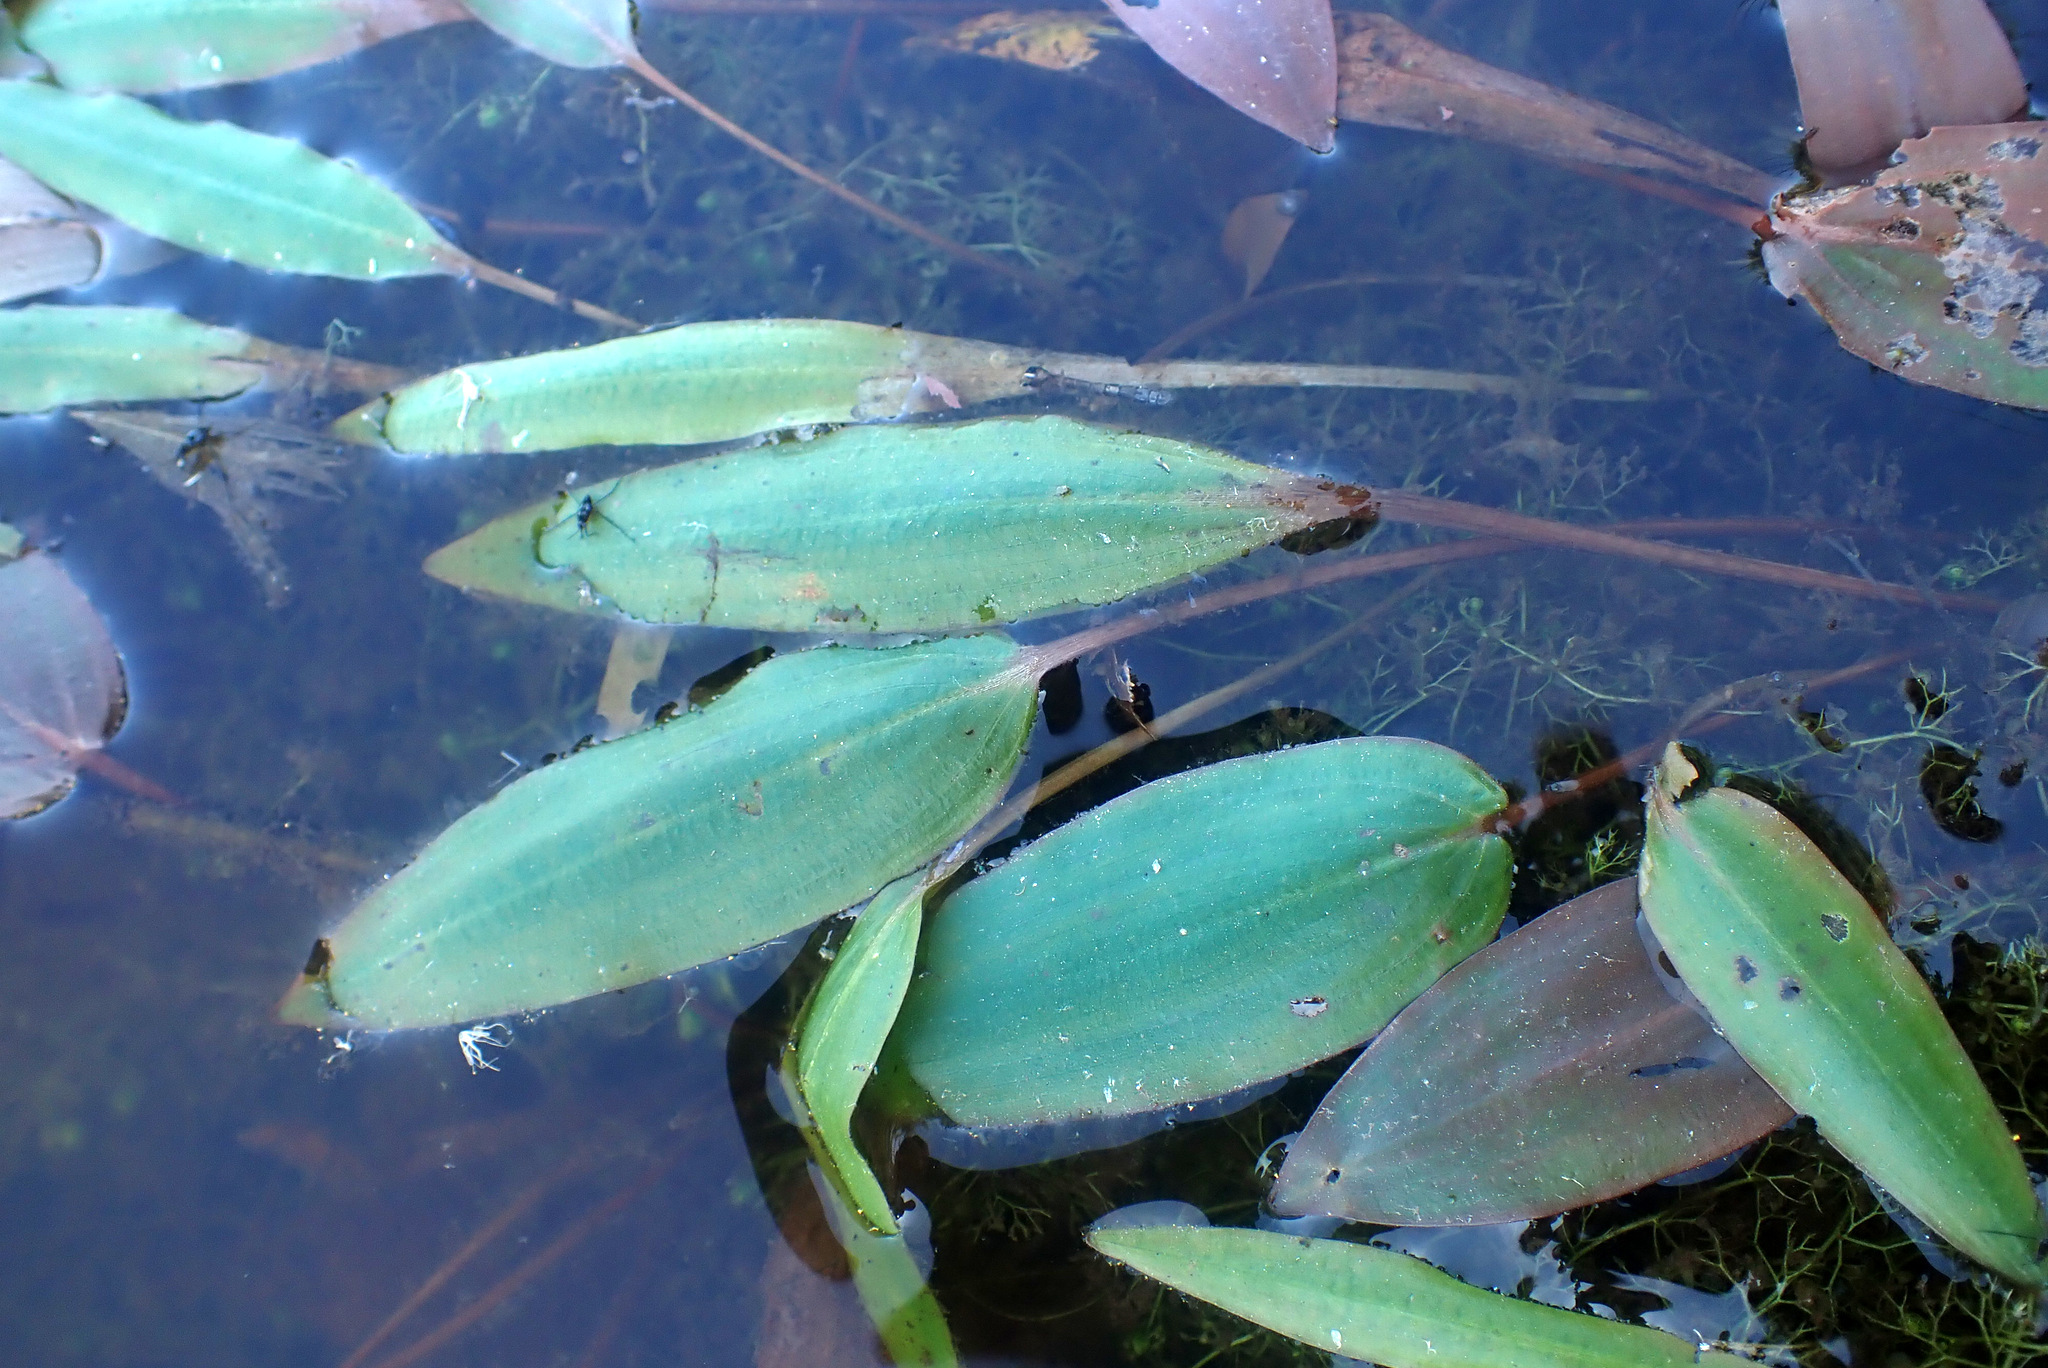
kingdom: Plantae
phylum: Tracheophyta
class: Liliopsida
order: Alismatales
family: Potamogetonaceae
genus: Potamogeton
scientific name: Potamogeton polygonifolius
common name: Bog pondweed
